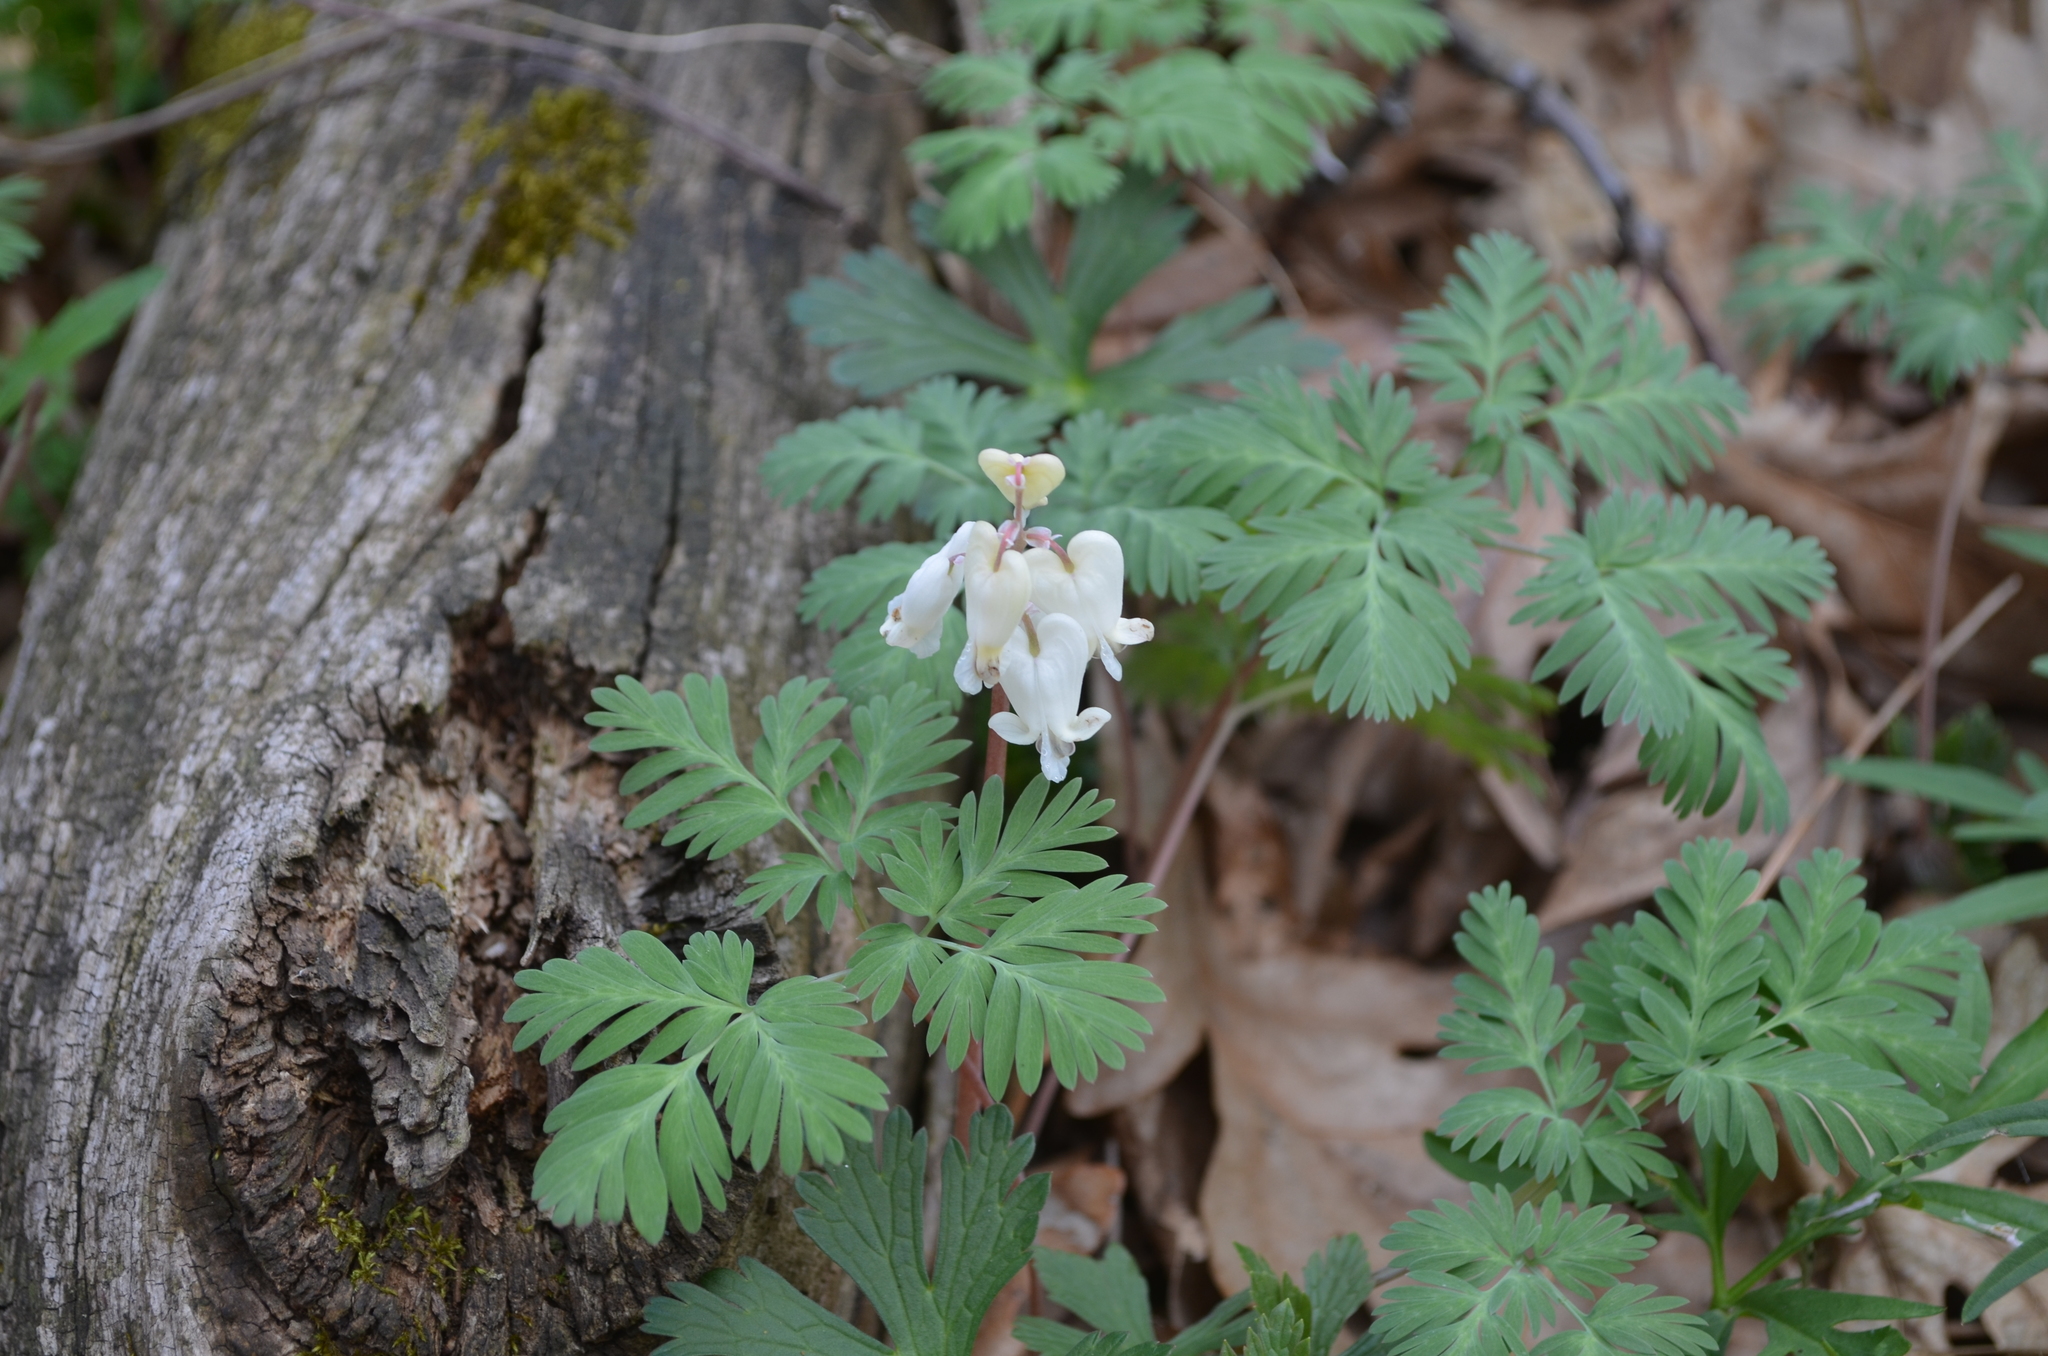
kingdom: Plantae
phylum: Tracheophyta
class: Magnoliopsida
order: Ranunculales
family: Papaveraceae
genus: Dicentra
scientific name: Dicentra canadensis
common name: Squirrel-corn
